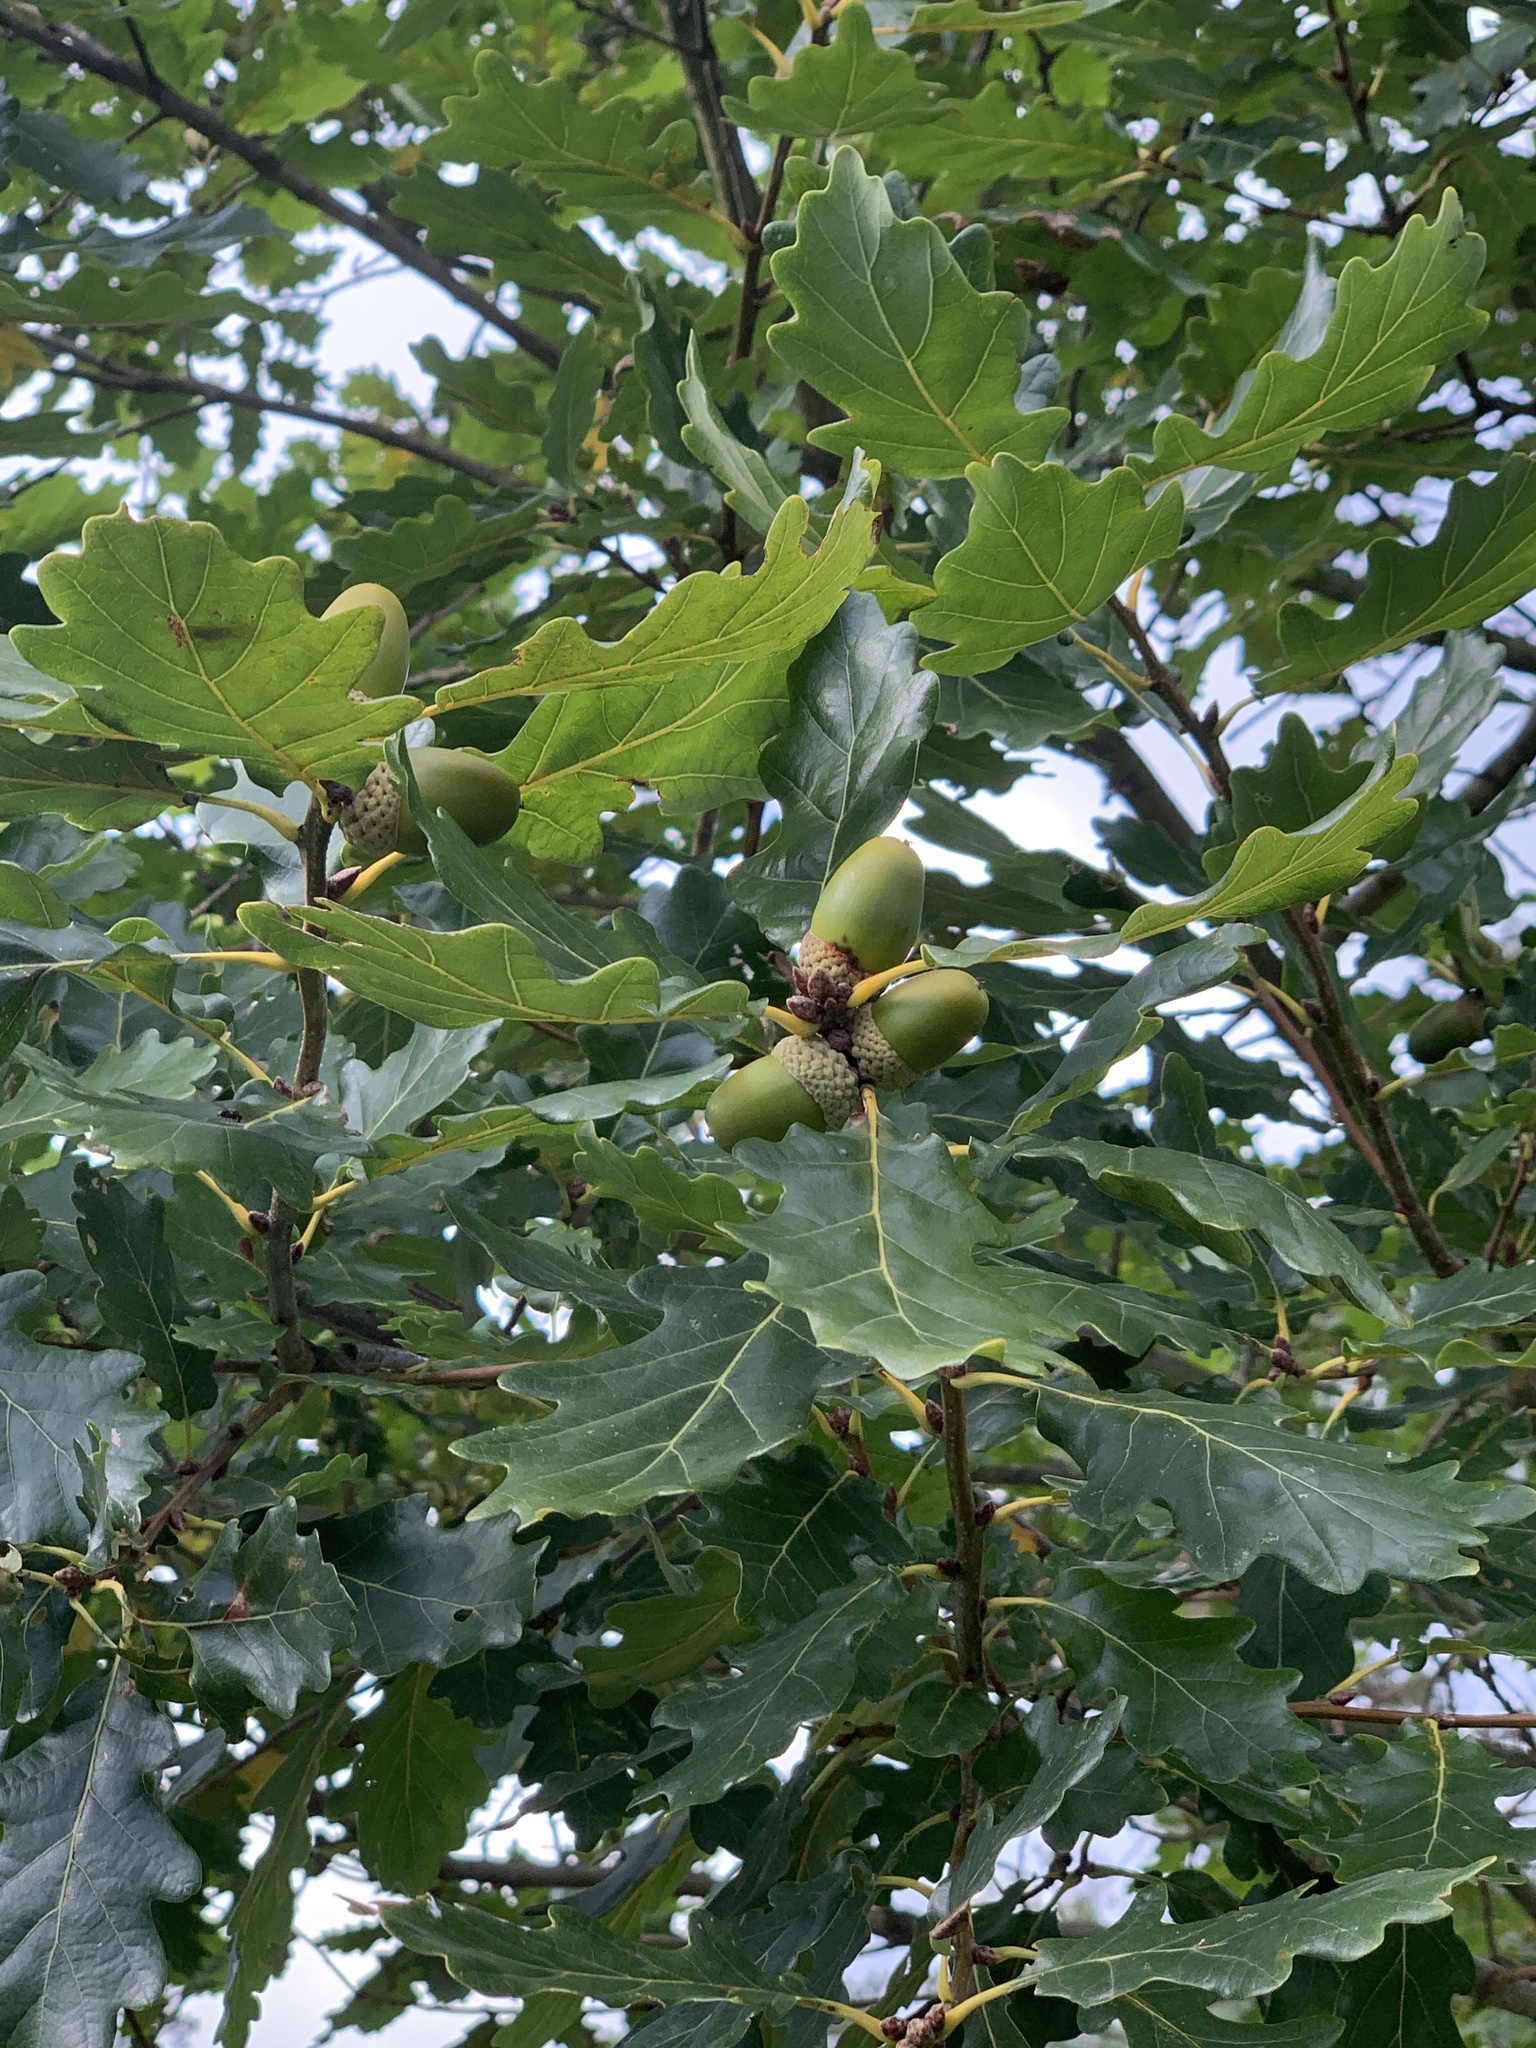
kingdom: Plantae
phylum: Tracheophyta
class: Magnoliopsida
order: Fagales
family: Fagaceae
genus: Quercus
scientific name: Quercus petraea
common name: Sessile oak
